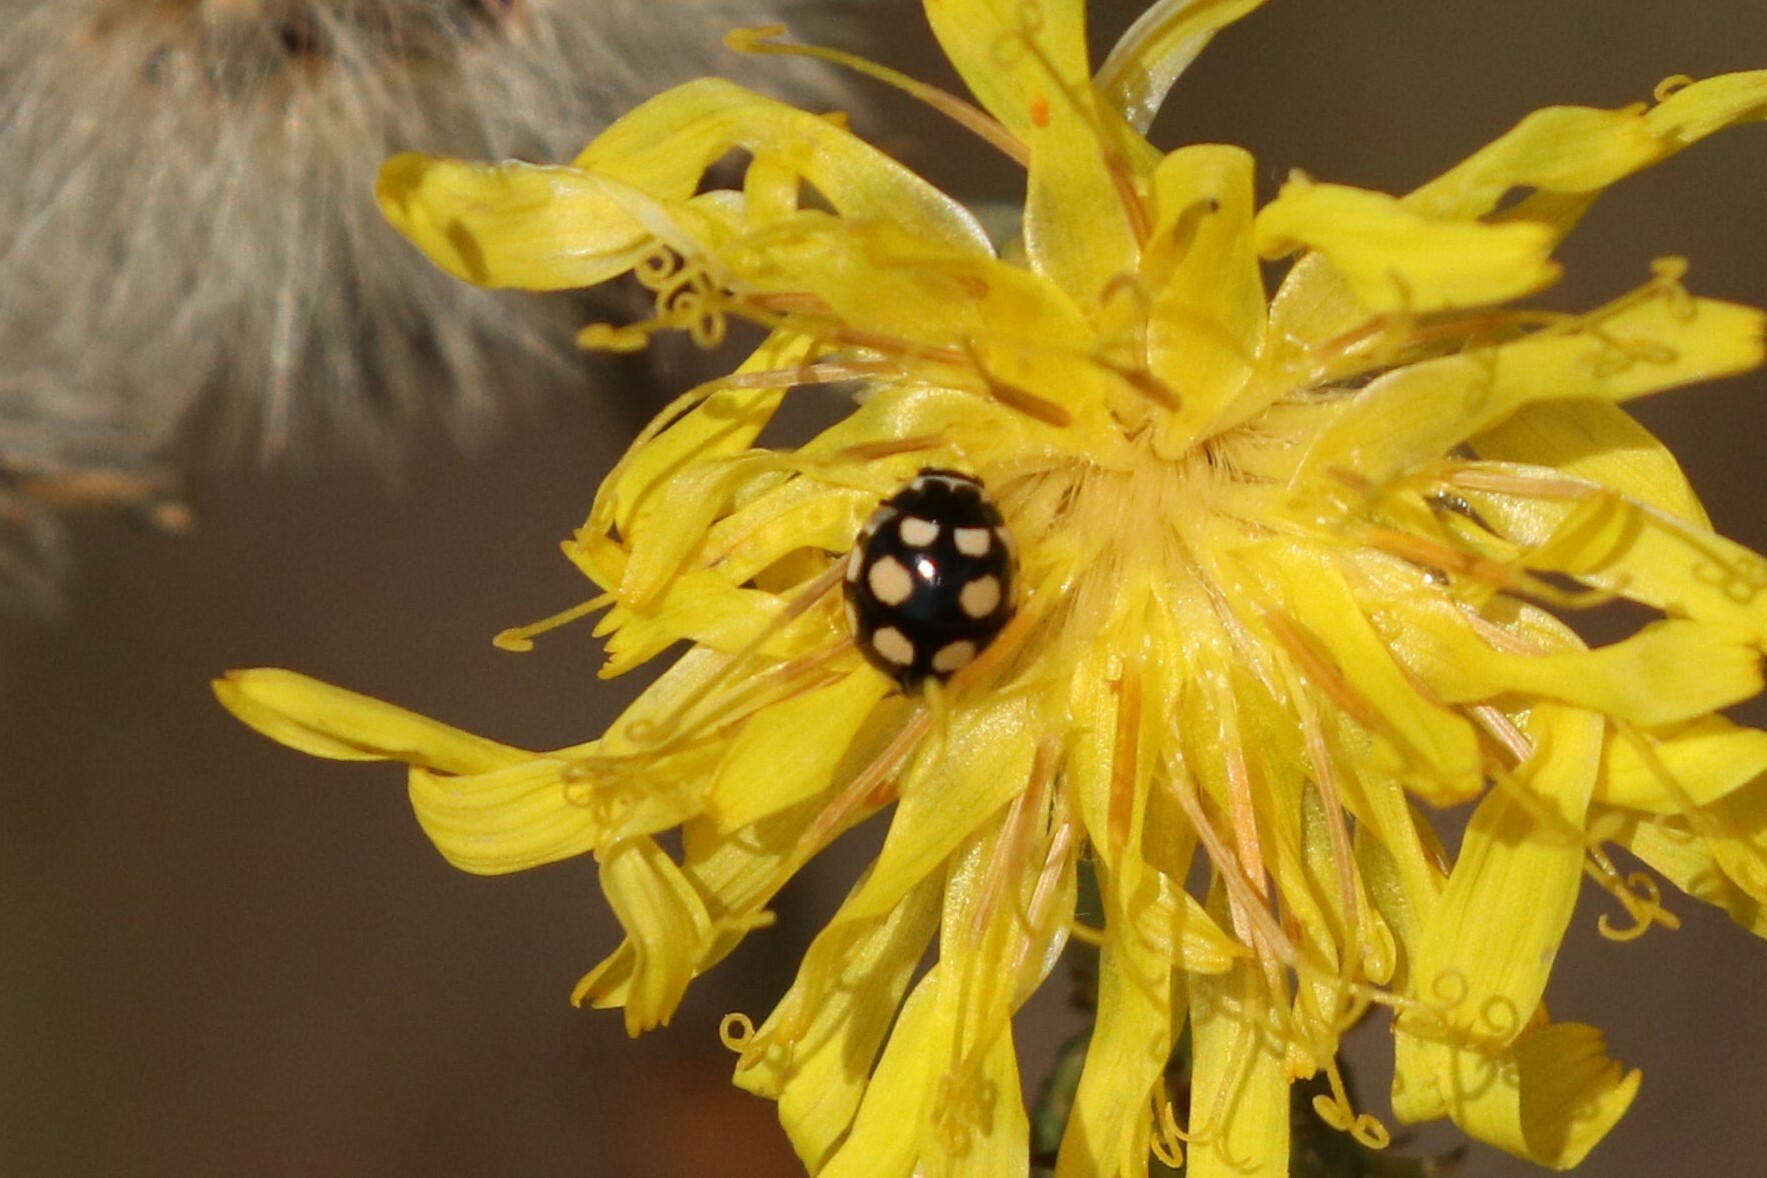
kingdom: Animalia
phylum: Arthropoda
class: Insecta
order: Coleoptera
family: Coccinellidae
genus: Coccinula
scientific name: Coccinula quatuordecimpustulata
